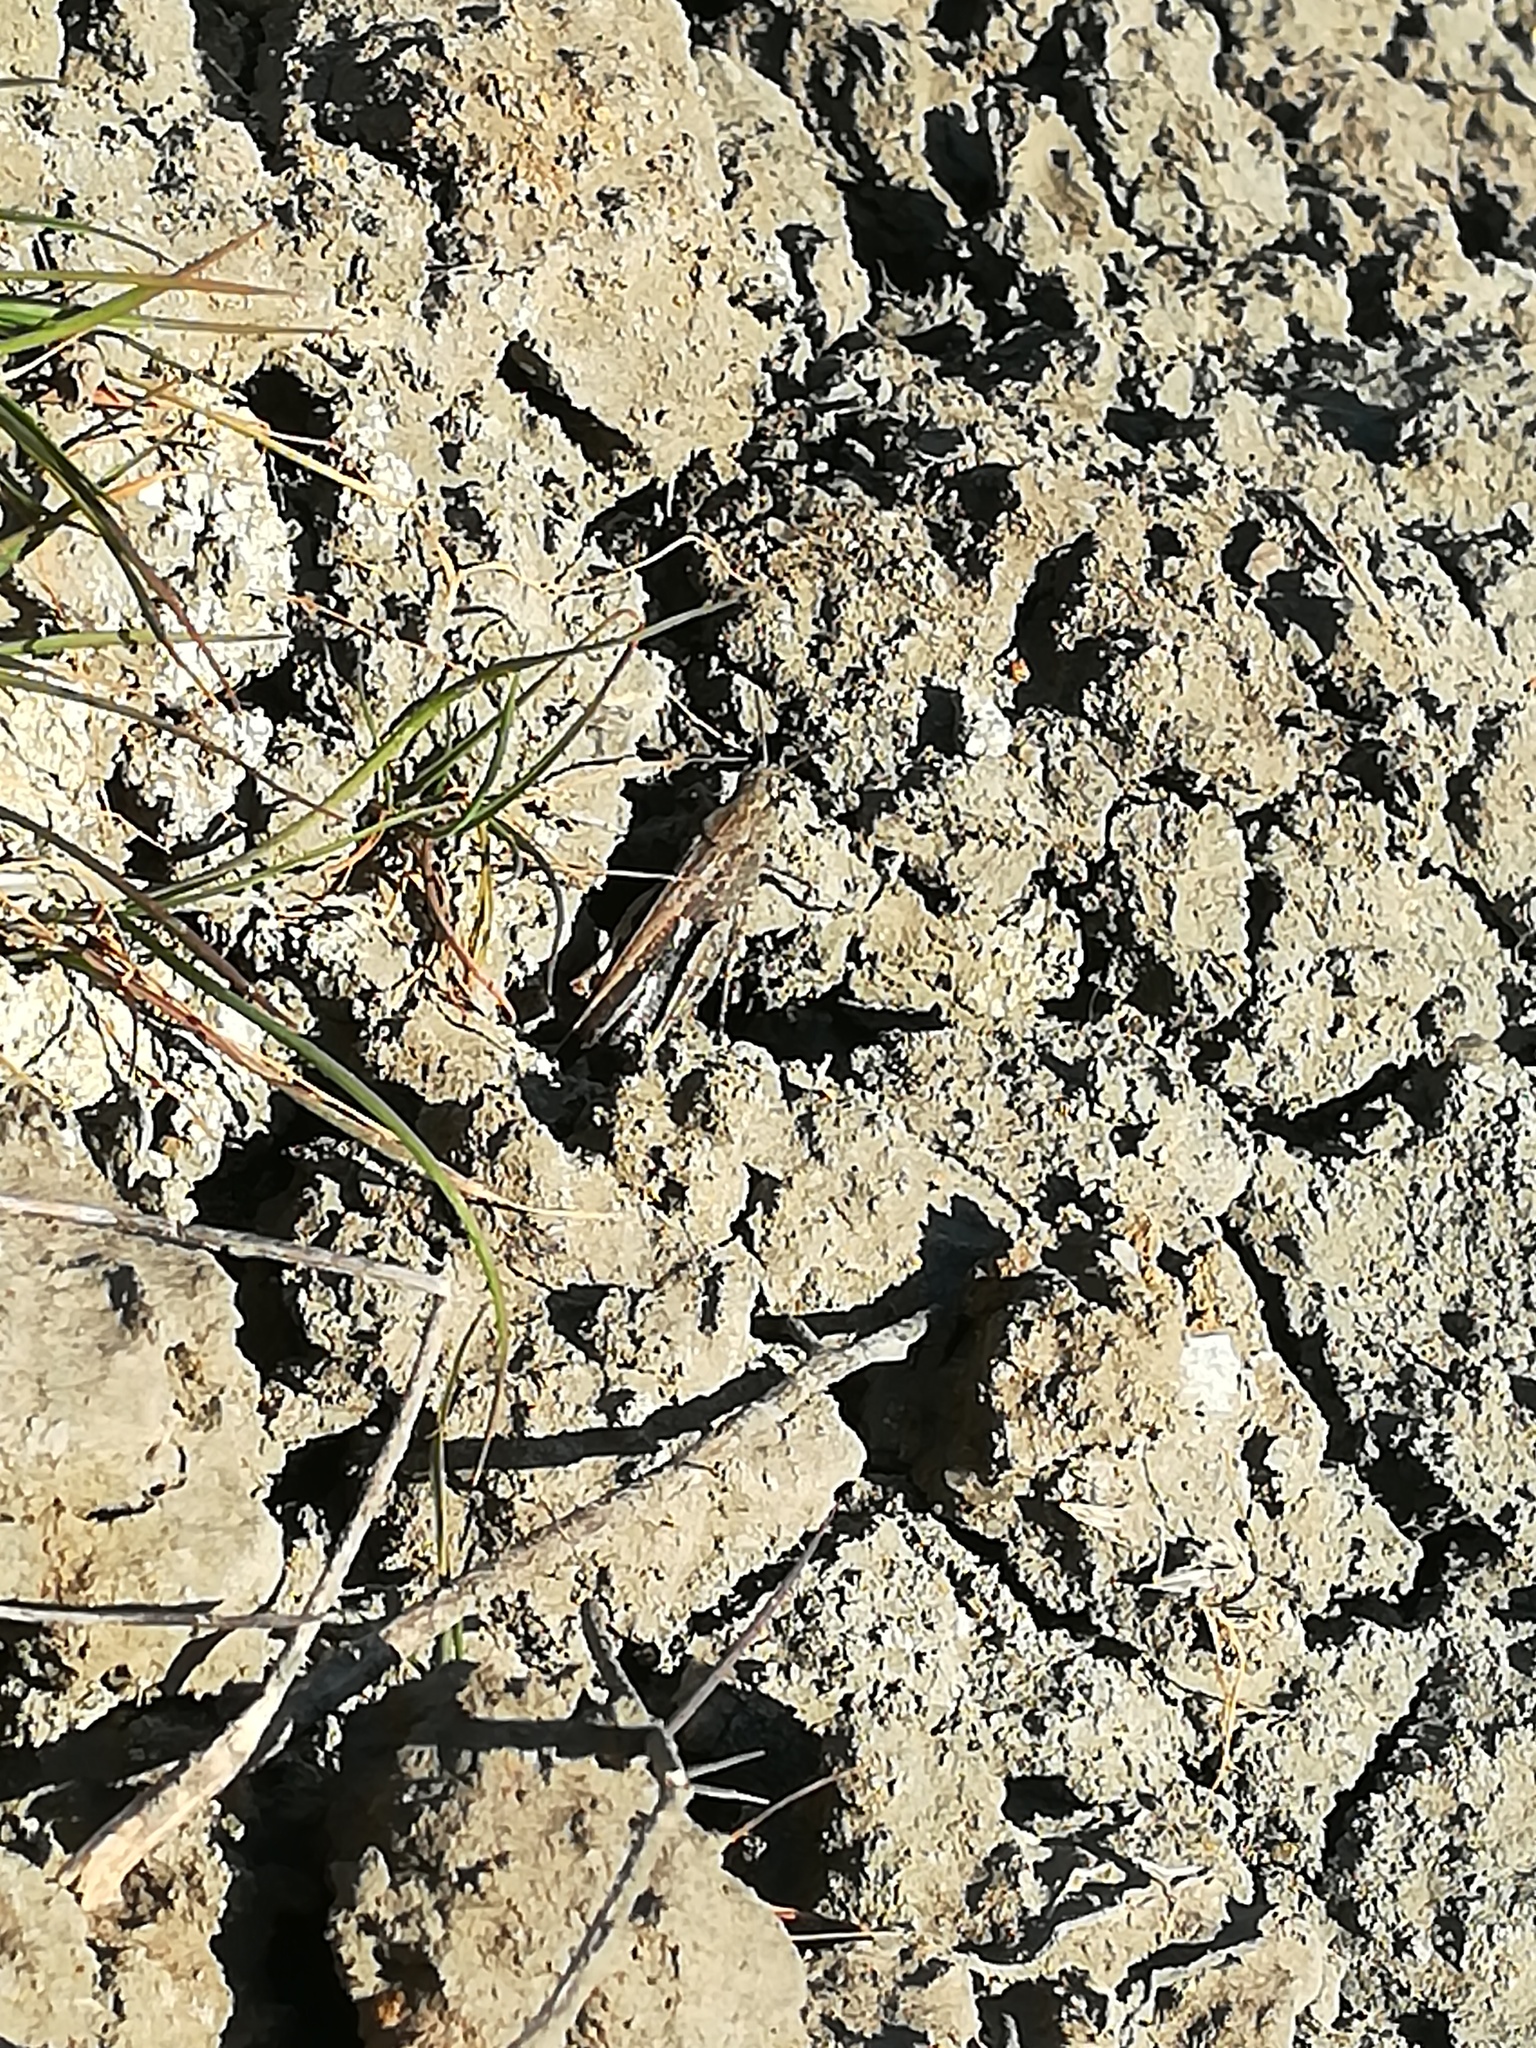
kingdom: Animalia
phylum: Arthropoda
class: Insecta
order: Orthoptera
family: Acrididae
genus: Aiolopus
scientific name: Aiolopus strepens
